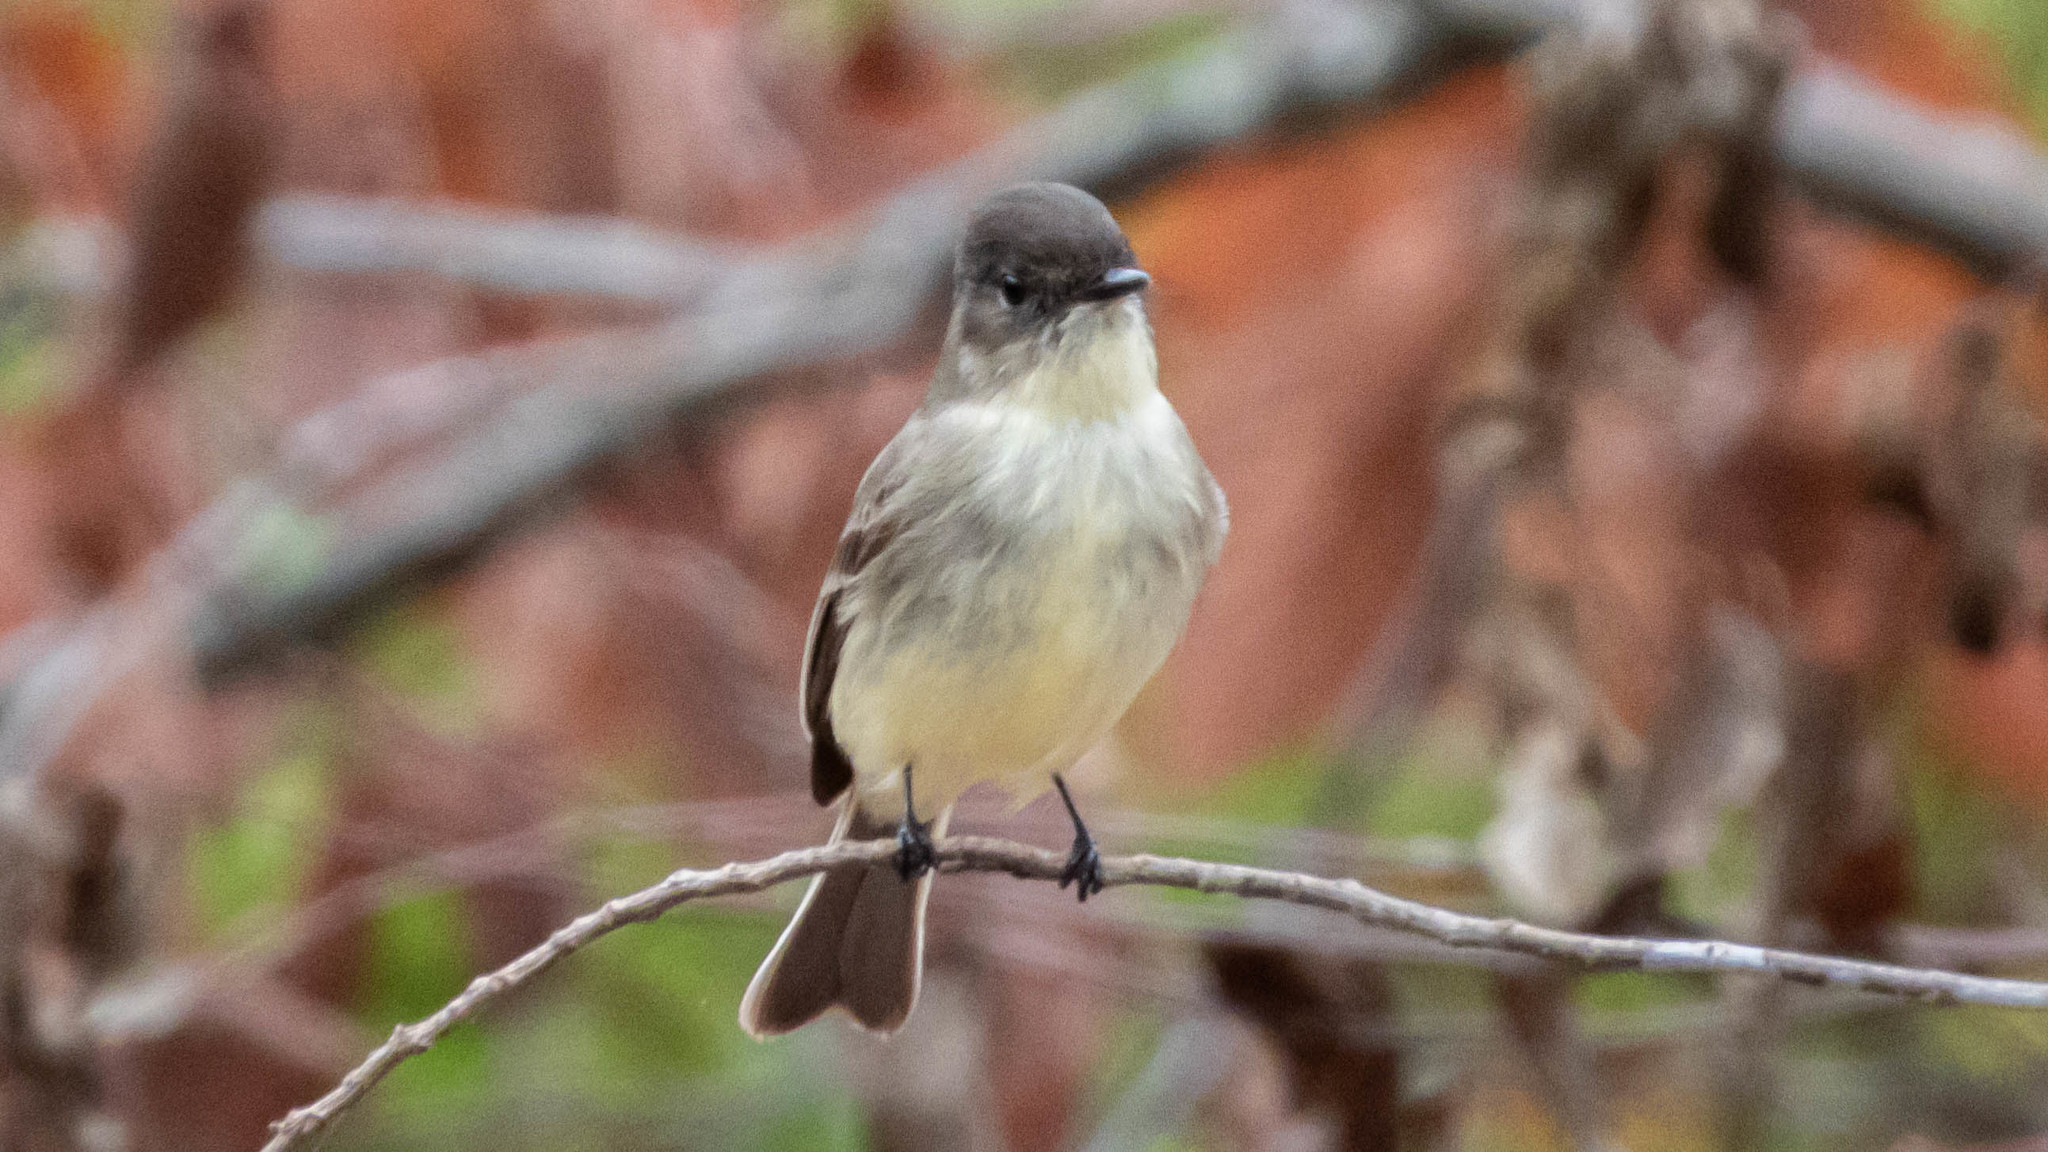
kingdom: Animalia
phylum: Chordata
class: Aves
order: Passeriformes
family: Tyrannidae
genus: Sayornis
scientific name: Sayornis phoebe
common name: Eastern phoebe
